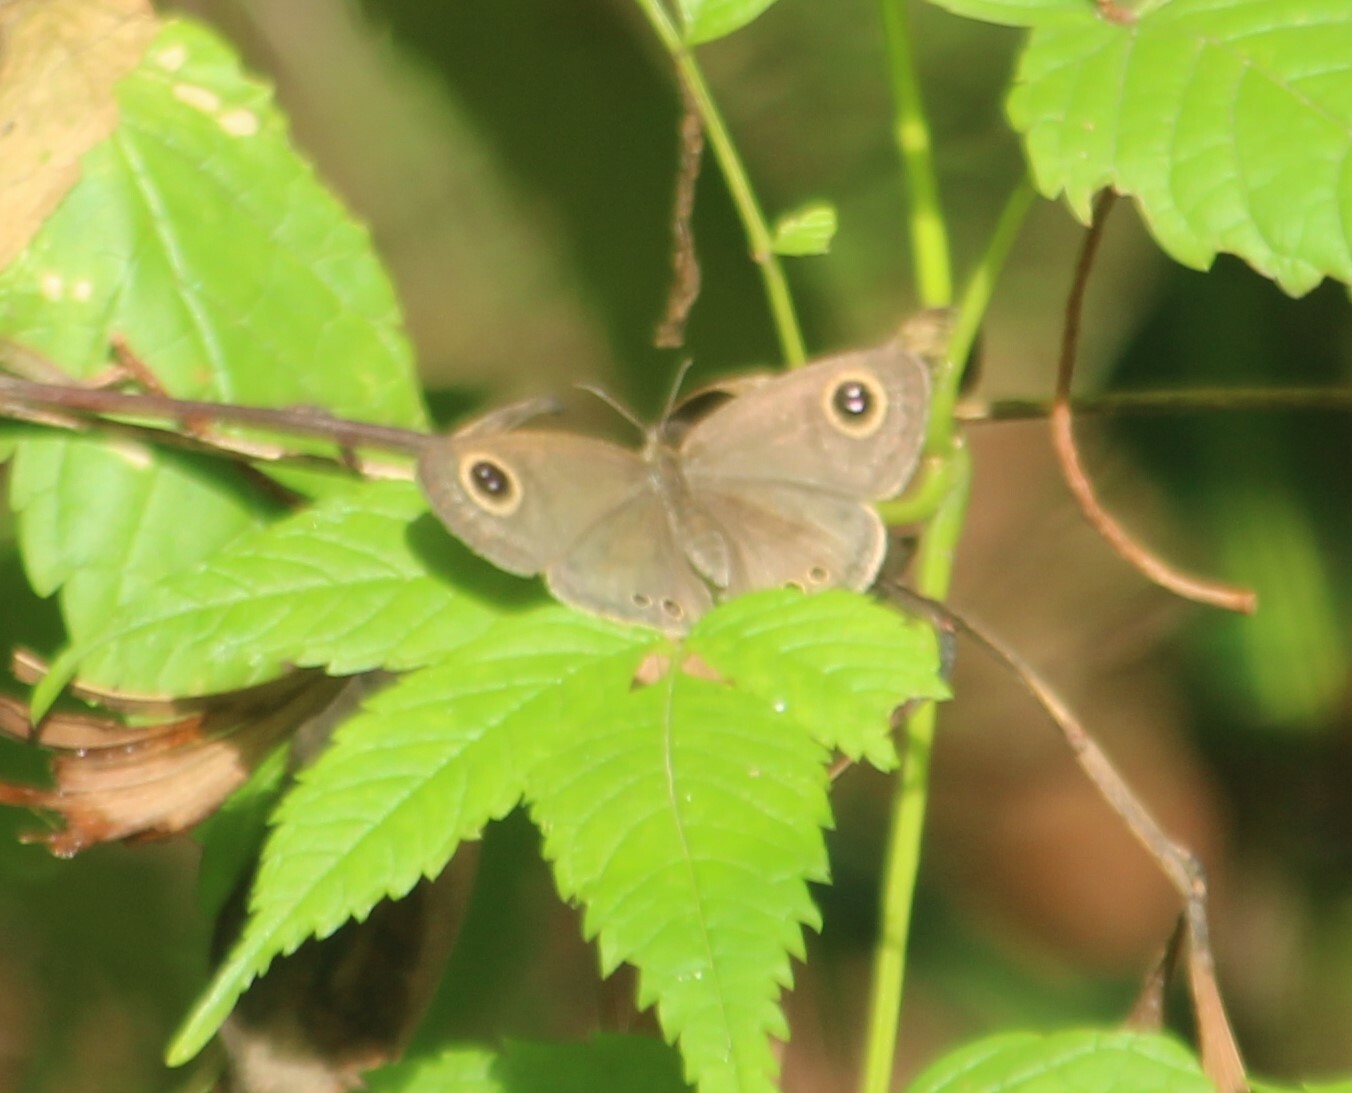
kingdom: Animalia
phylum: Arthropoda
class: Insecta
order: Lepidoptera
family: Nymphalidae
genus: Ypthima
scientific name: Ypthima huebneri
